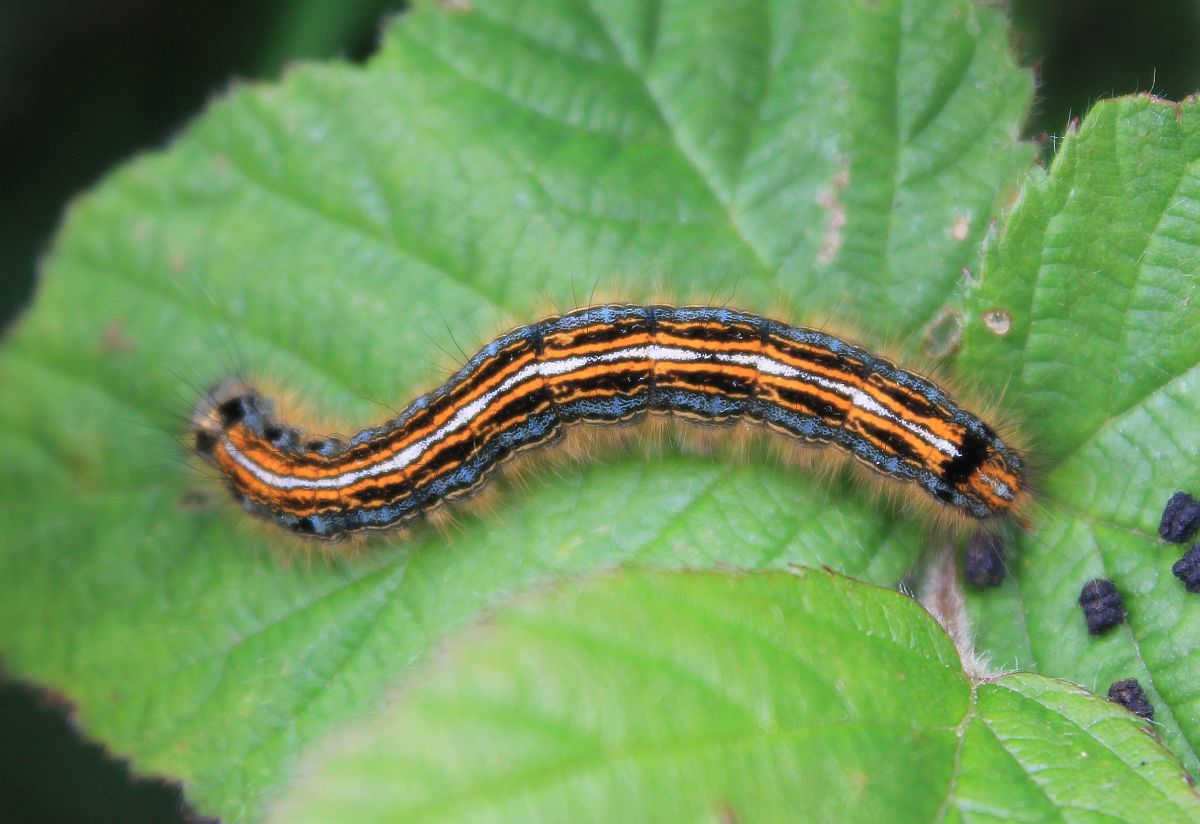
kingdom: Animalia
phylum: Arthropoda
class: Insecta
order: Lepidoptera
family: Lasiocampidae
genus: Malacosoma
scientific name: Malacosoma neustria
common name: The lackey
